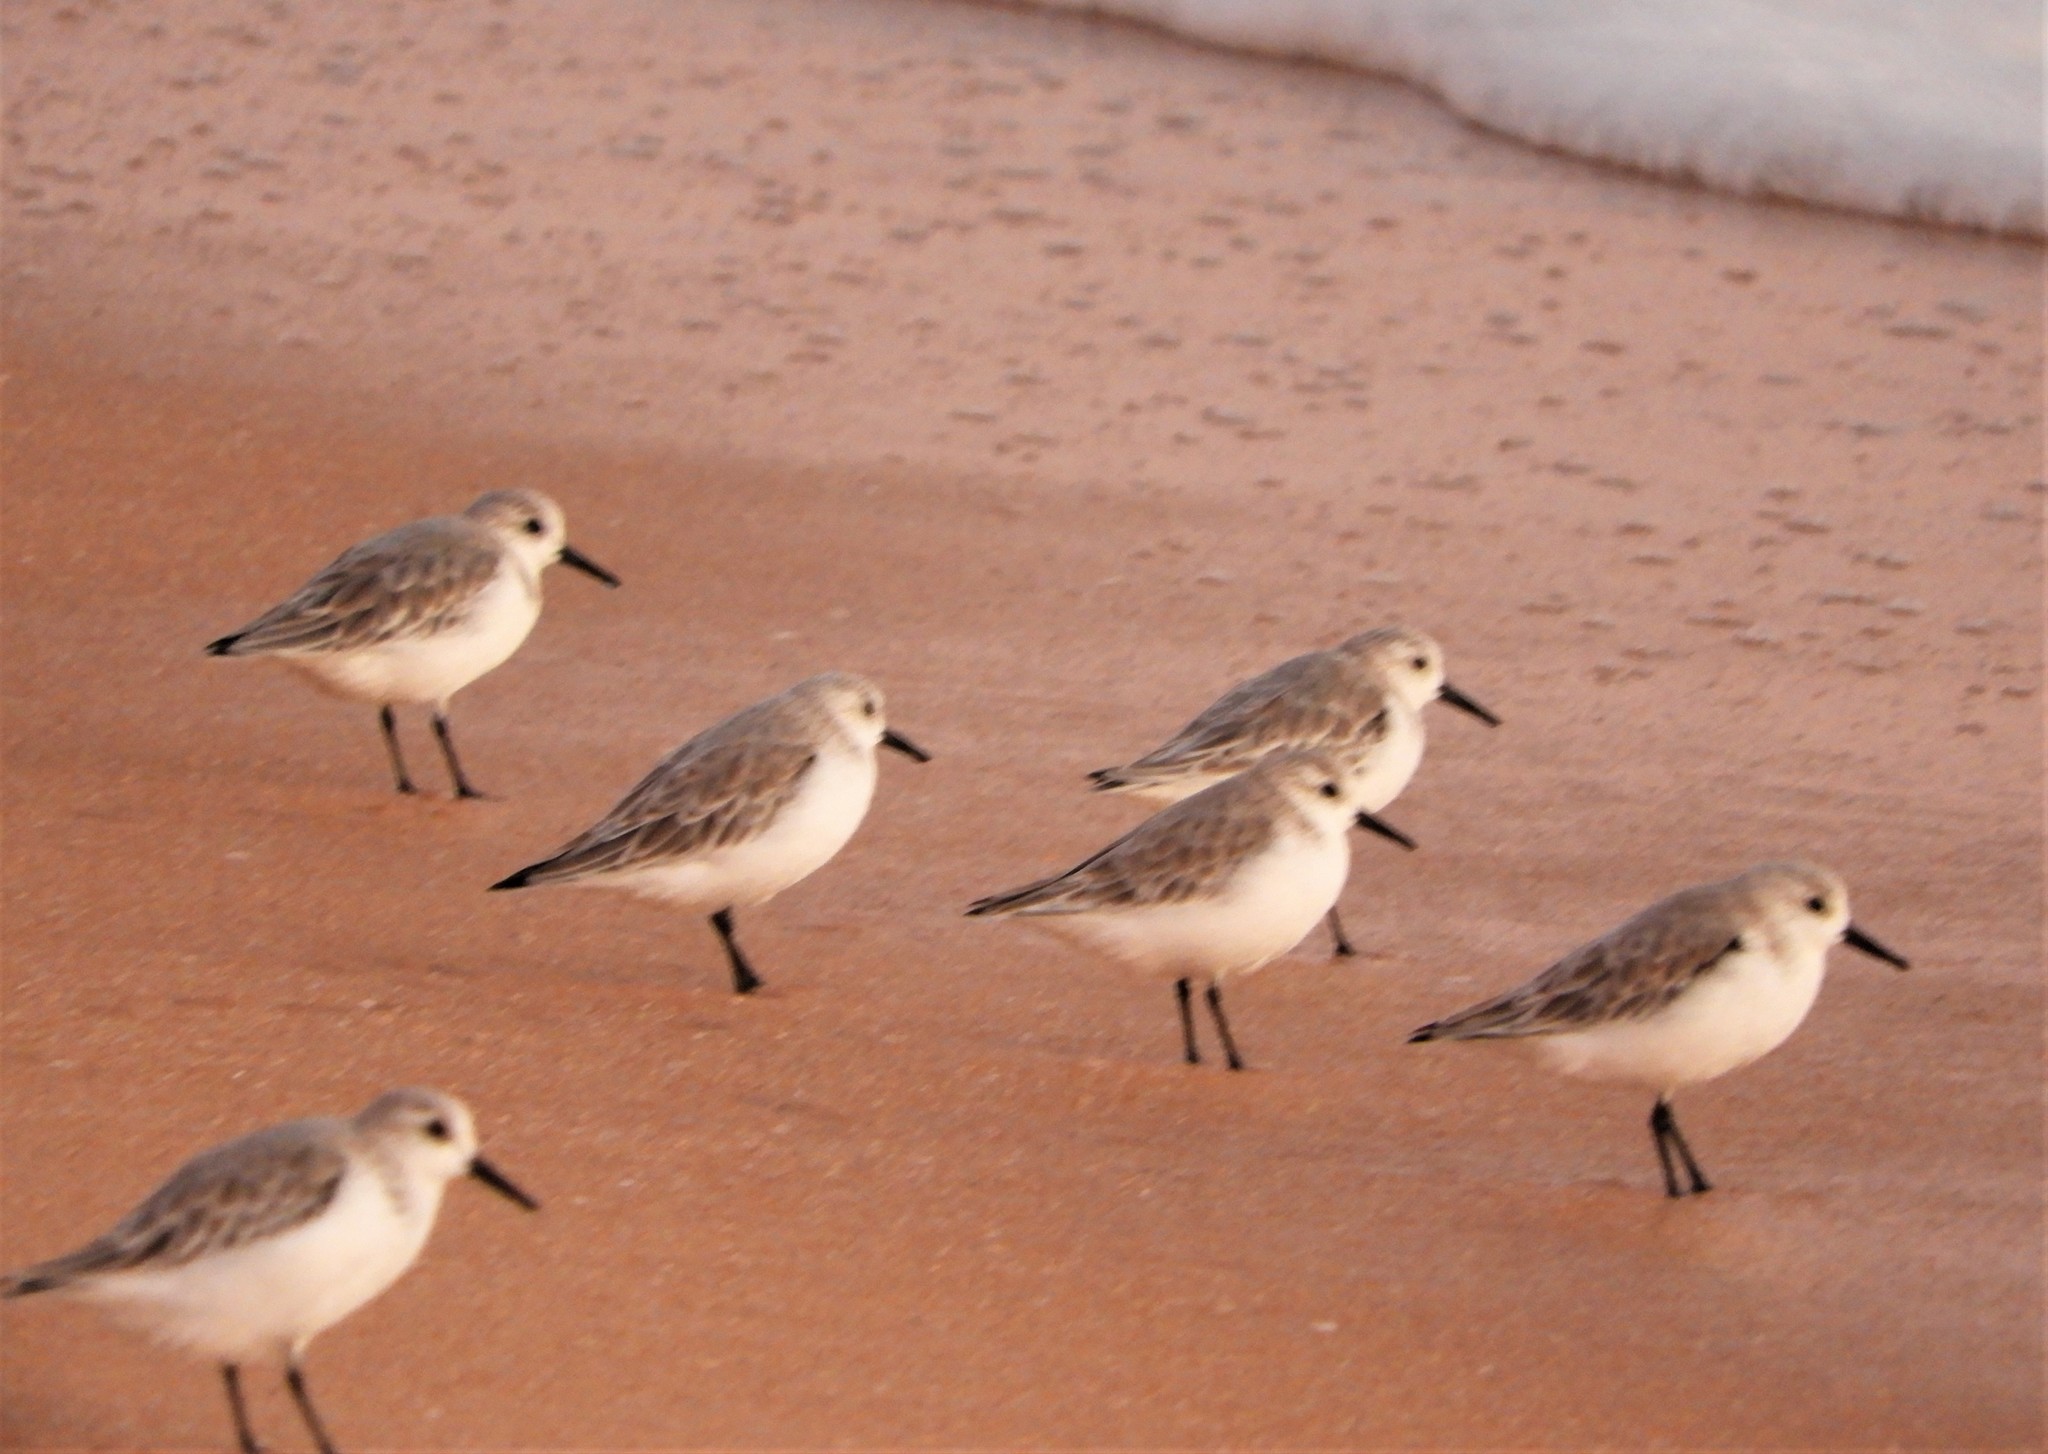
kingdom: Animalia
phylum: Chordata
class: Aves
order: Charadriiformes
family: Scolopacidae
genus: Calidris
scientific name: Calidris alba
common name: Sanderling
